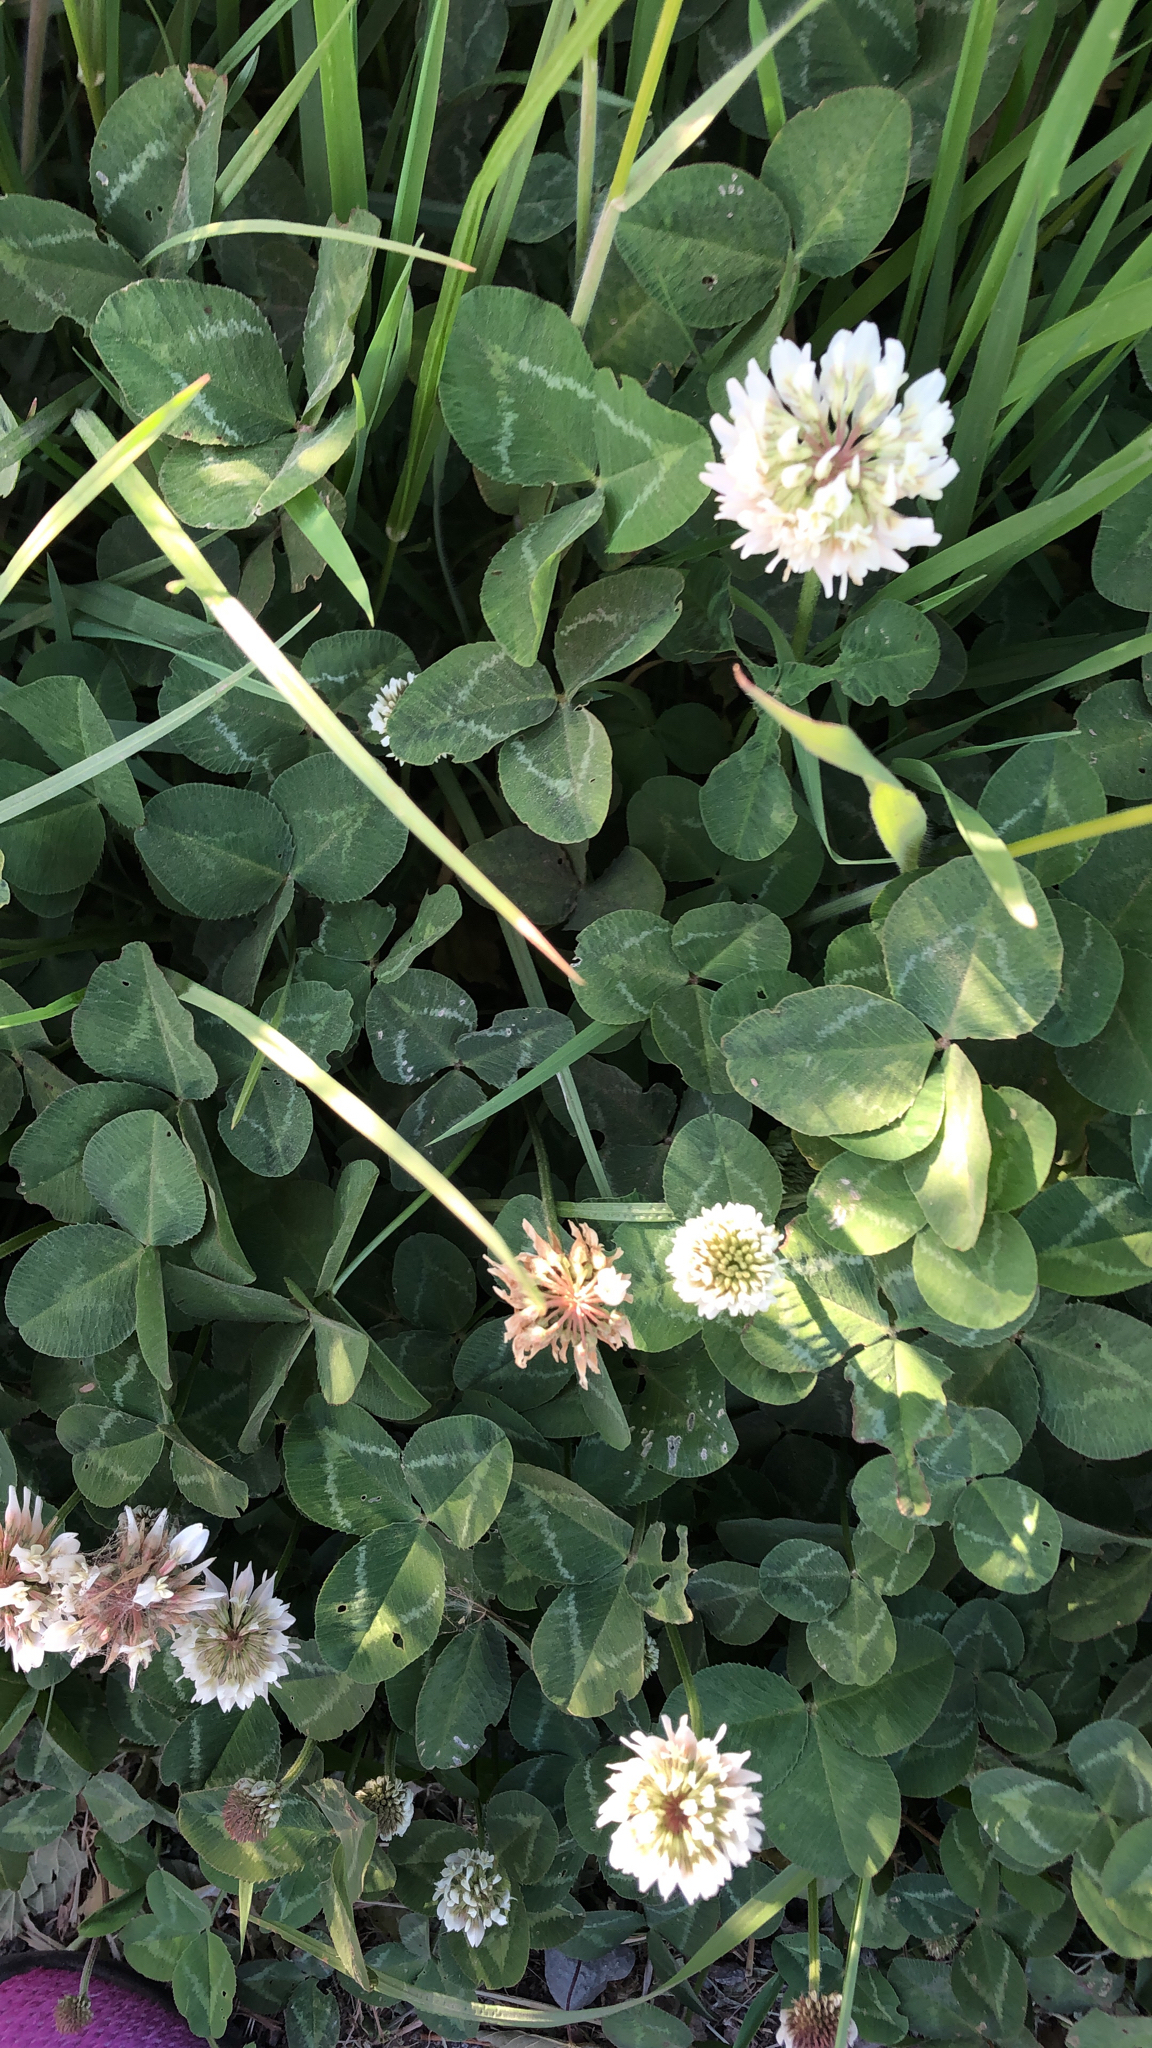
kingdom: Plantae
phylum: Tracheophyta
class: Magnoliopsida
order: Fabales
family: Fabaceae
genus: Trifolium
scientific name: Trifolium repens
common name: White clover
